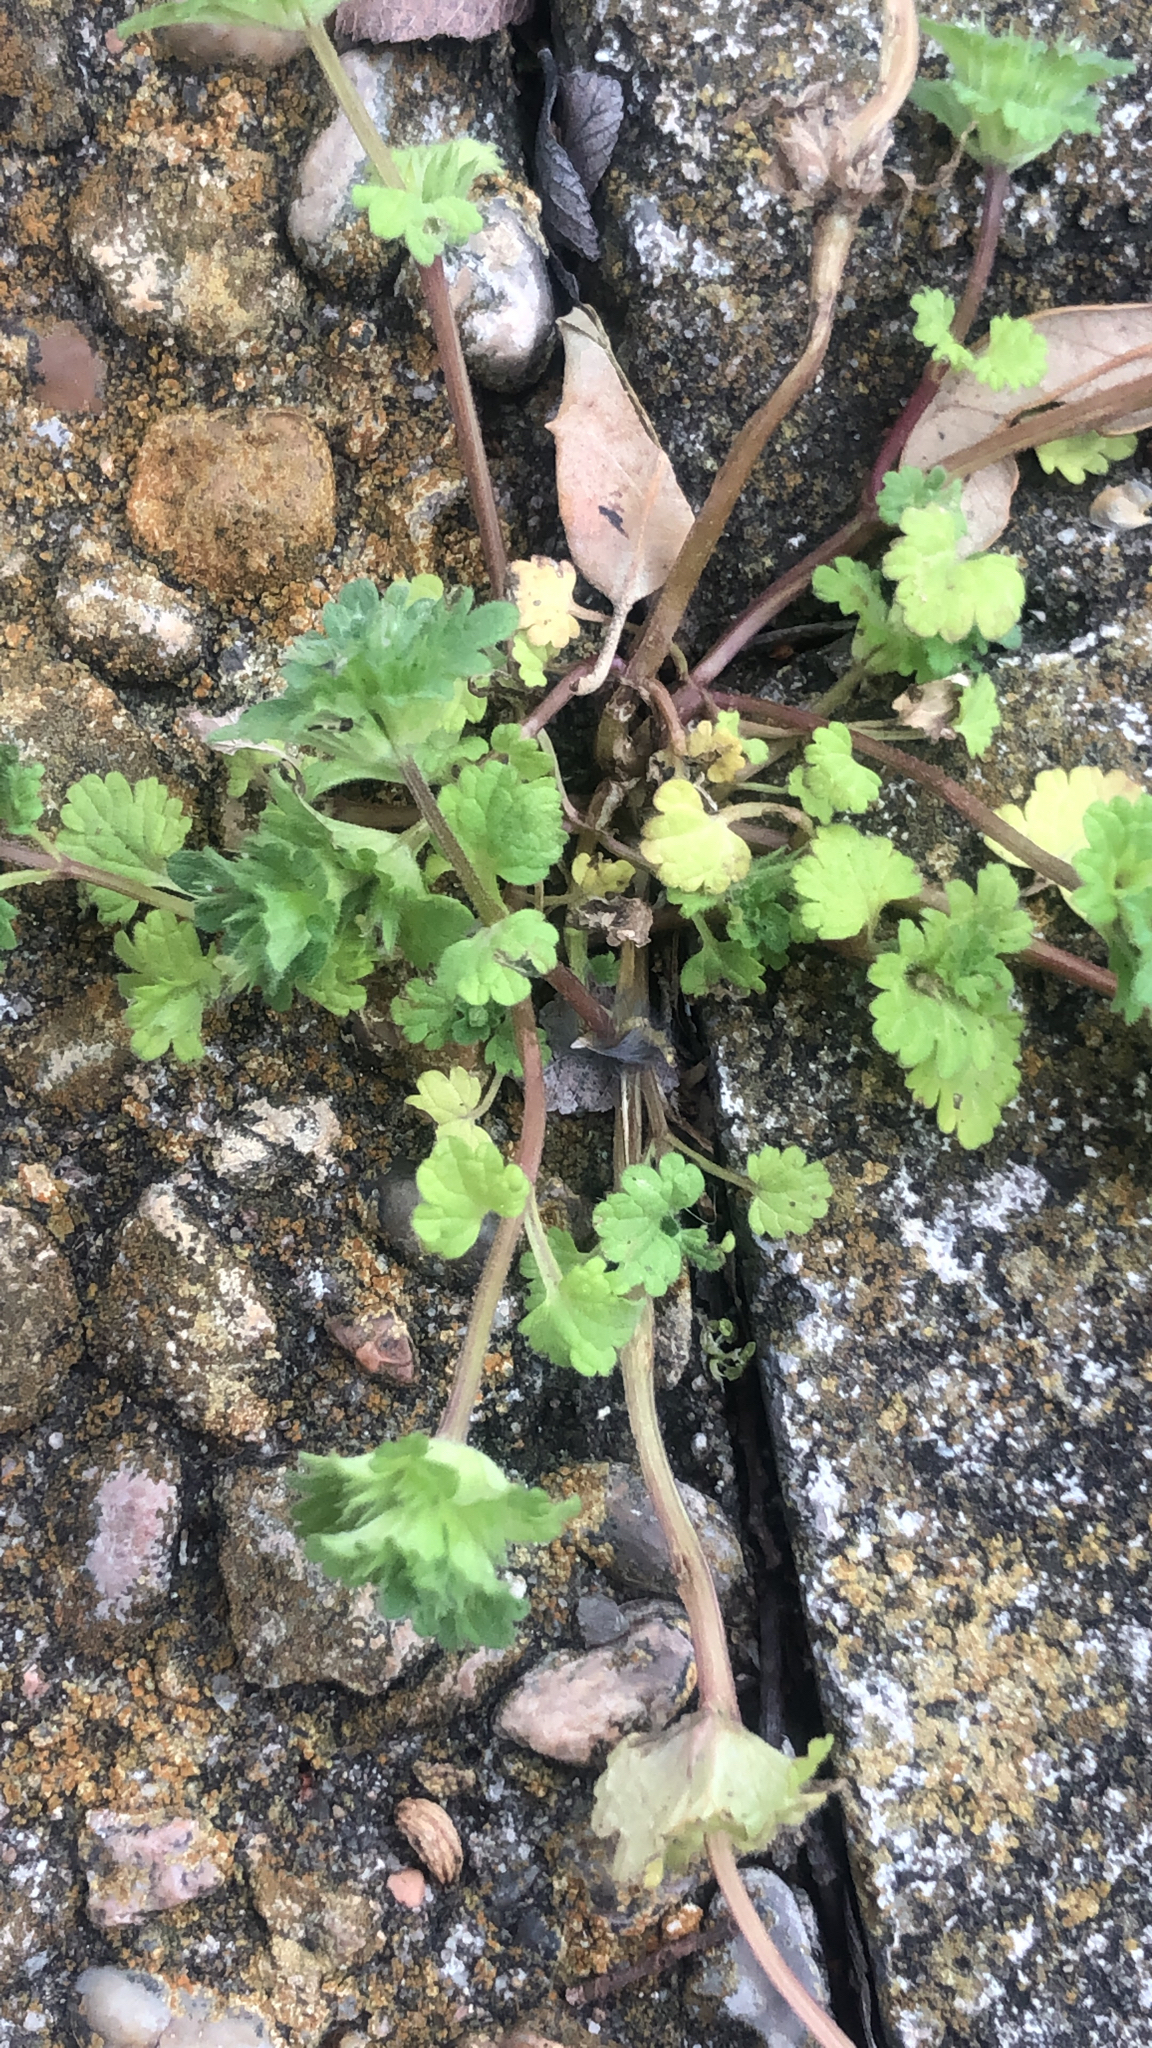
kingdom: Plantae
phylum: Tracheophyta
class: Magnoliopsida
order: Lamiales
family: Lamiaceae
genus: Lamium
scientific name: Lamium amplexicaule
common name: Henbit dead-nettle
